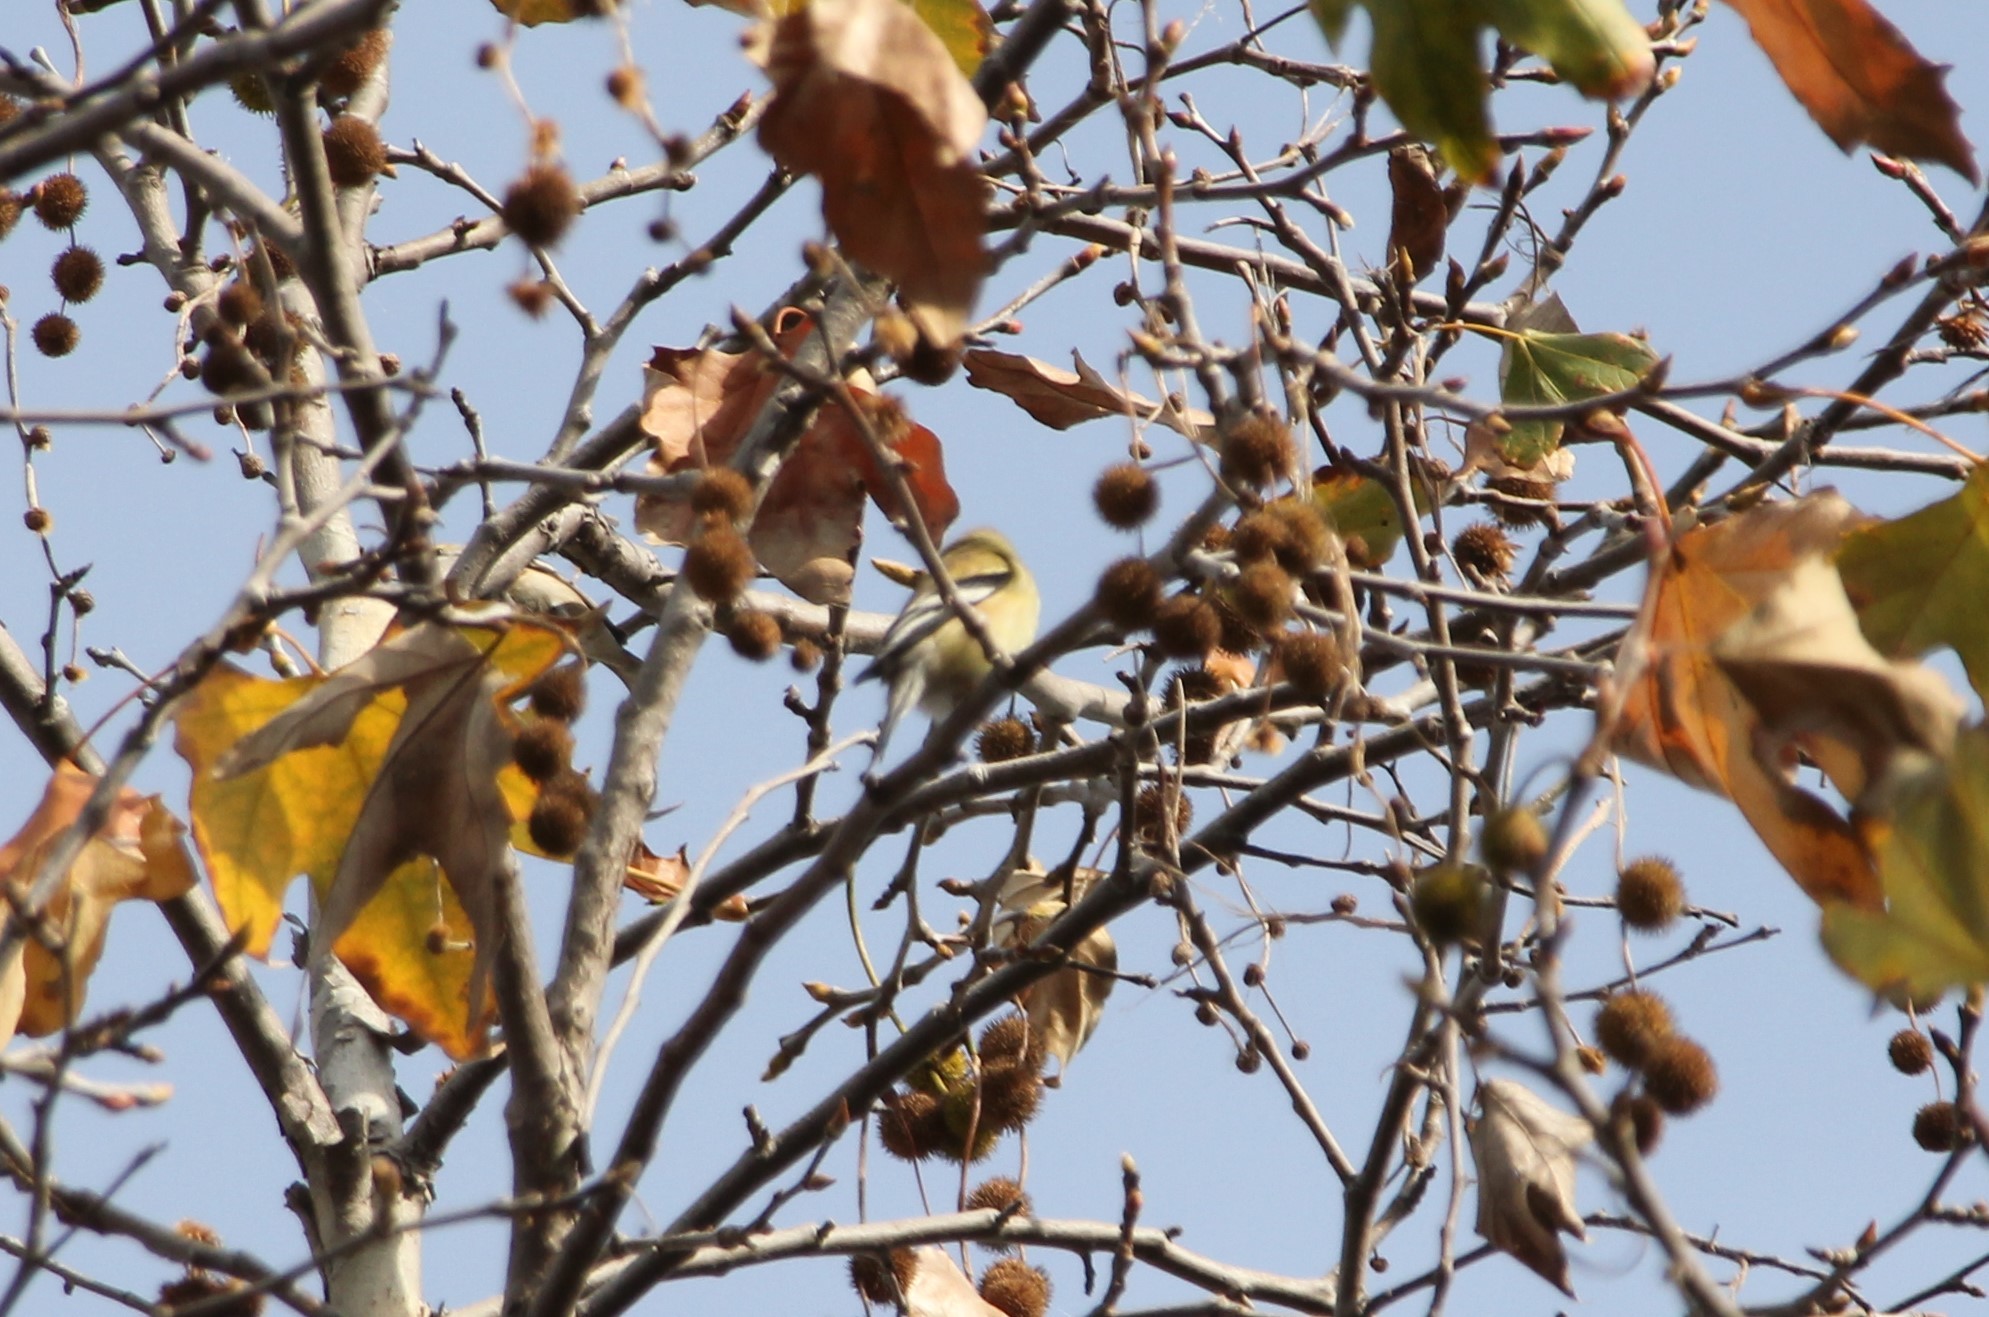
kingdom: Animalia
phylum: Chordata
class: Aves
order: Passeriformes
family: Fringillidae
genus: Spinus
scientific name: Spinus tristis
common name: American goldfinch
